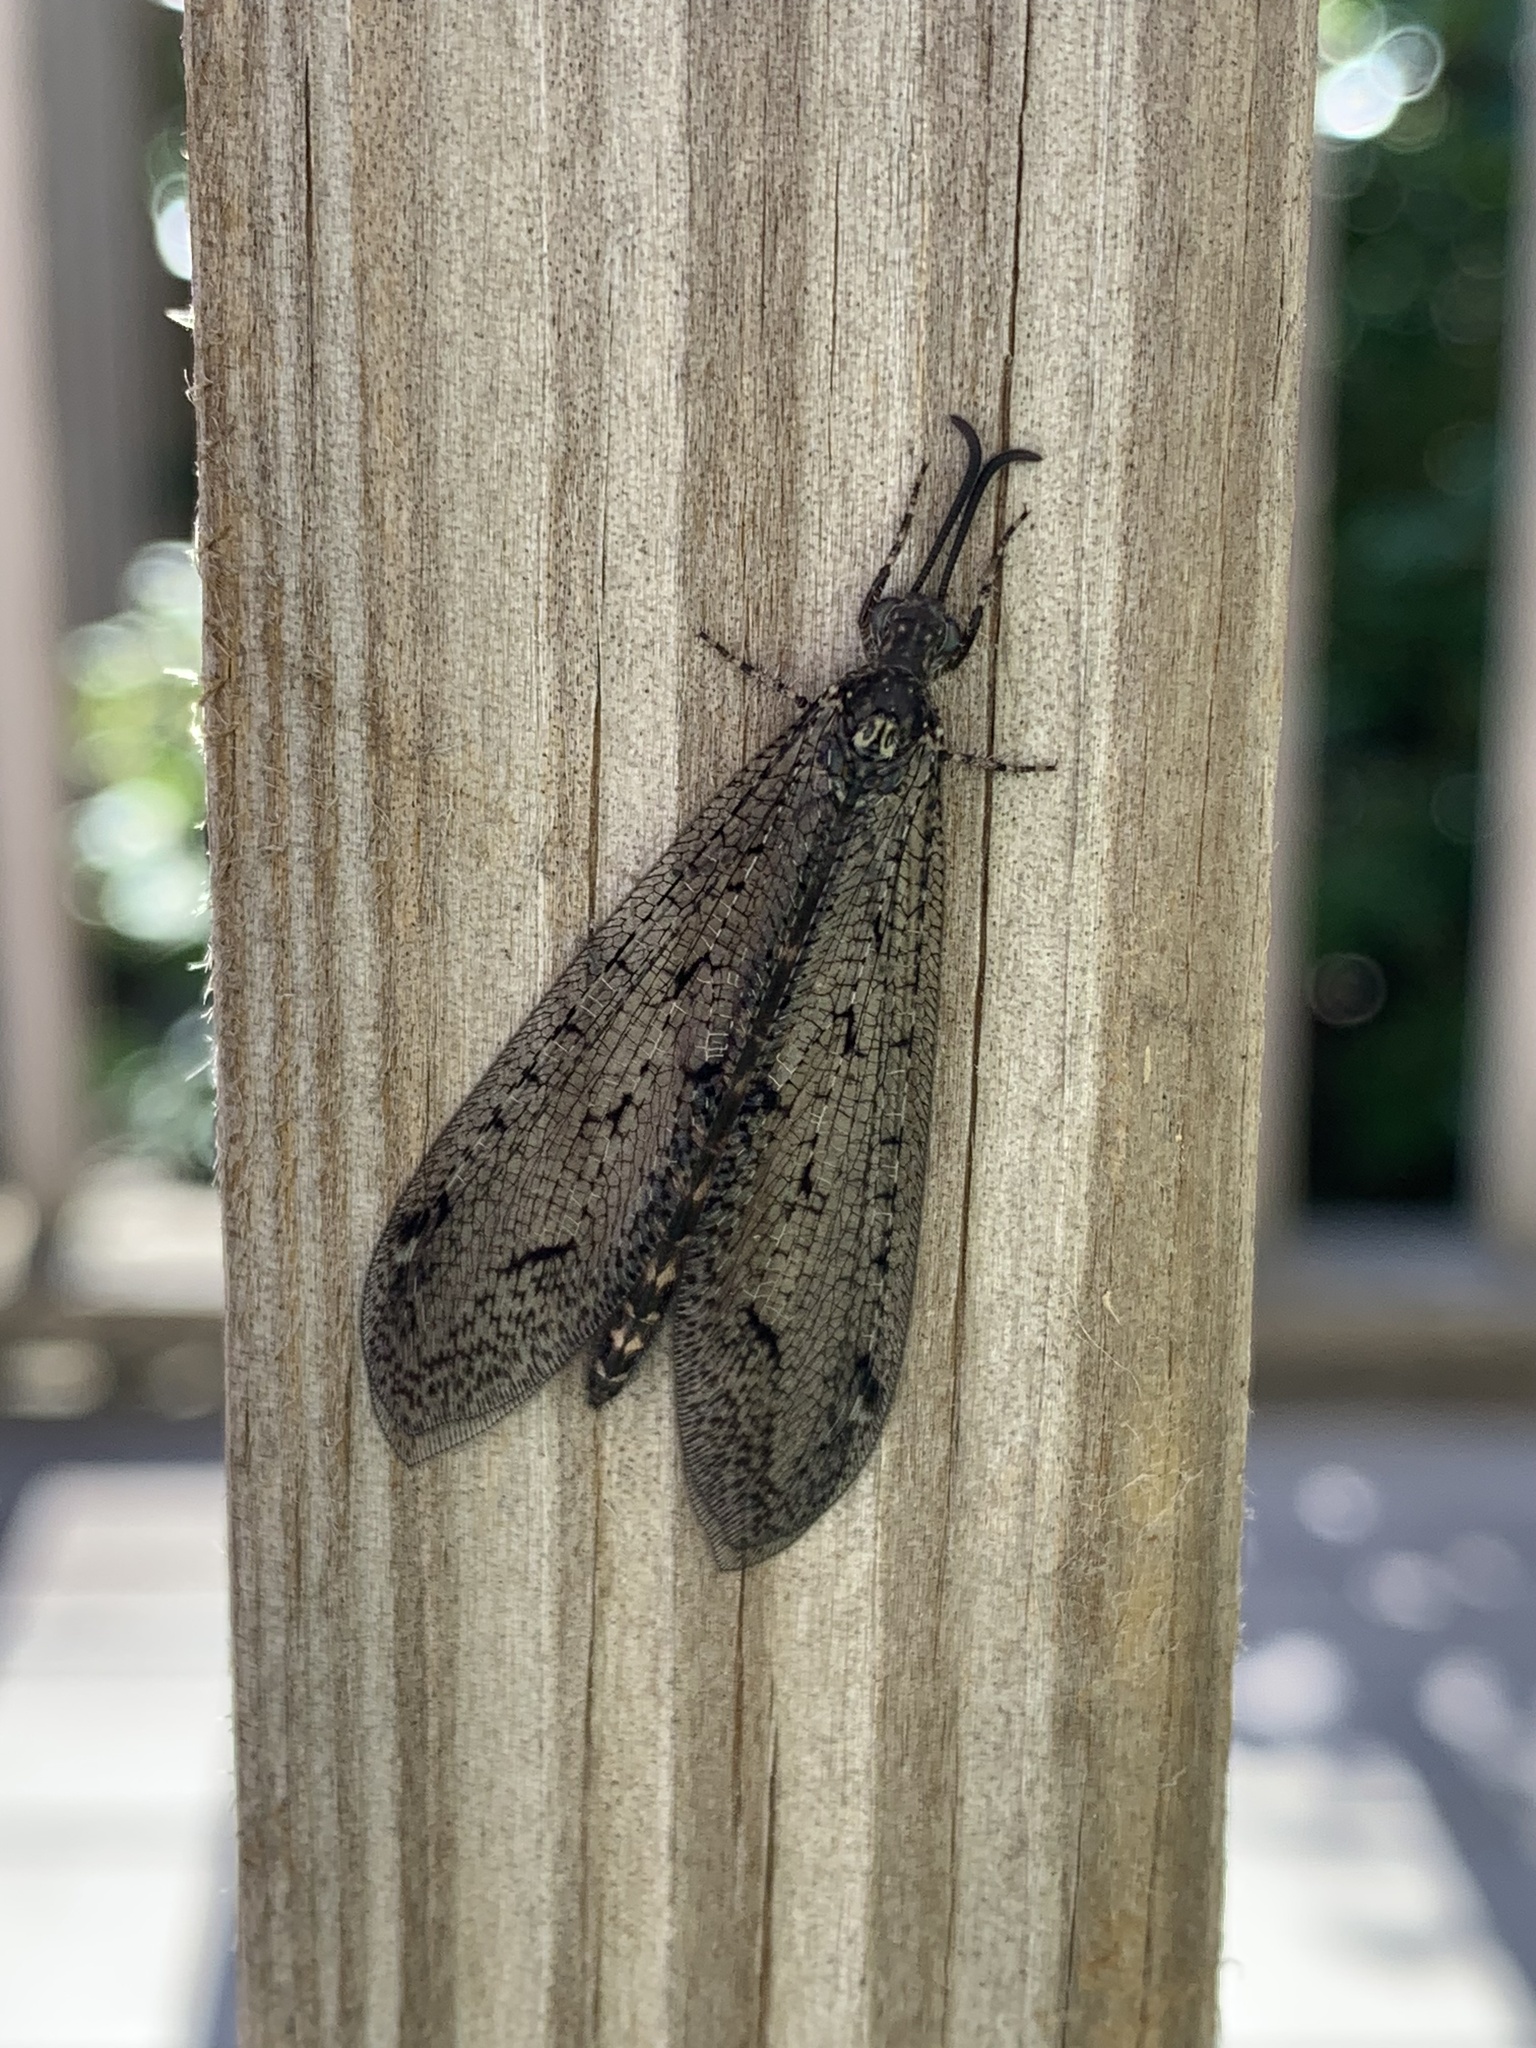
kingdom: Animalia
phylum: Arthropoda
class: Insecta
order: Neuroptera
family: Myrmeleontidae
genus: Brachynemurus
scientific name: Brachynemurus nebulosus
